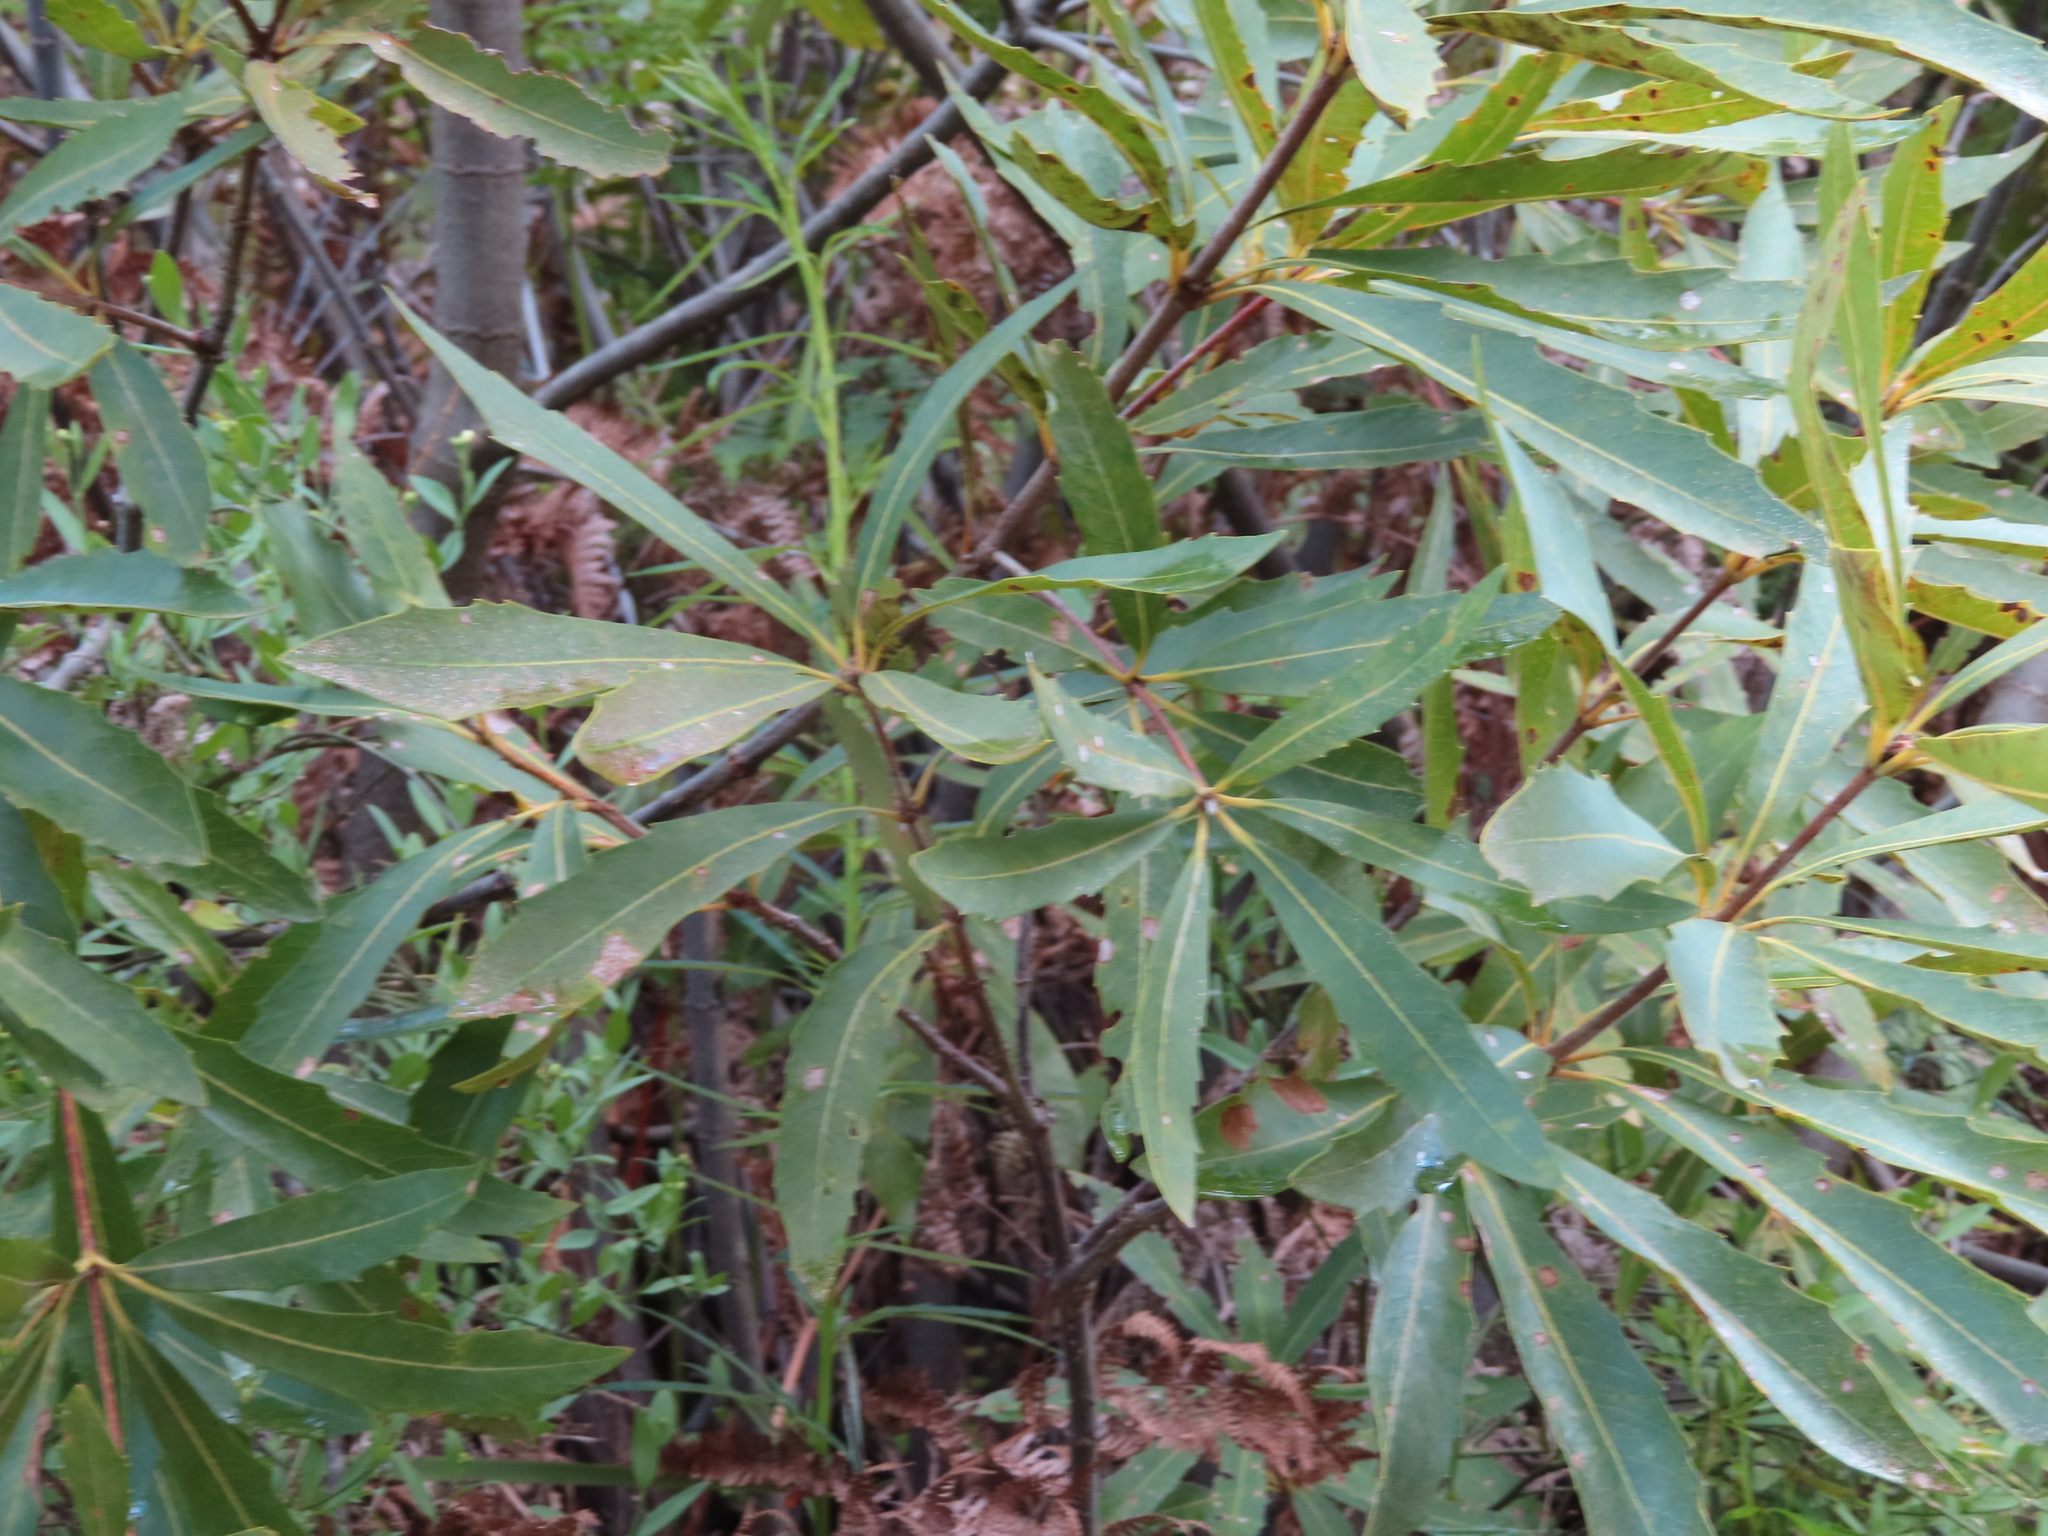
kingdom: Plantae
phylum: Tracheophyta
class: Magnoliopsida
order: Proteales
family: Proteaceae
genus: Brabejum
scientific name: Brabejum stellatifolium
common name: Wild almond
